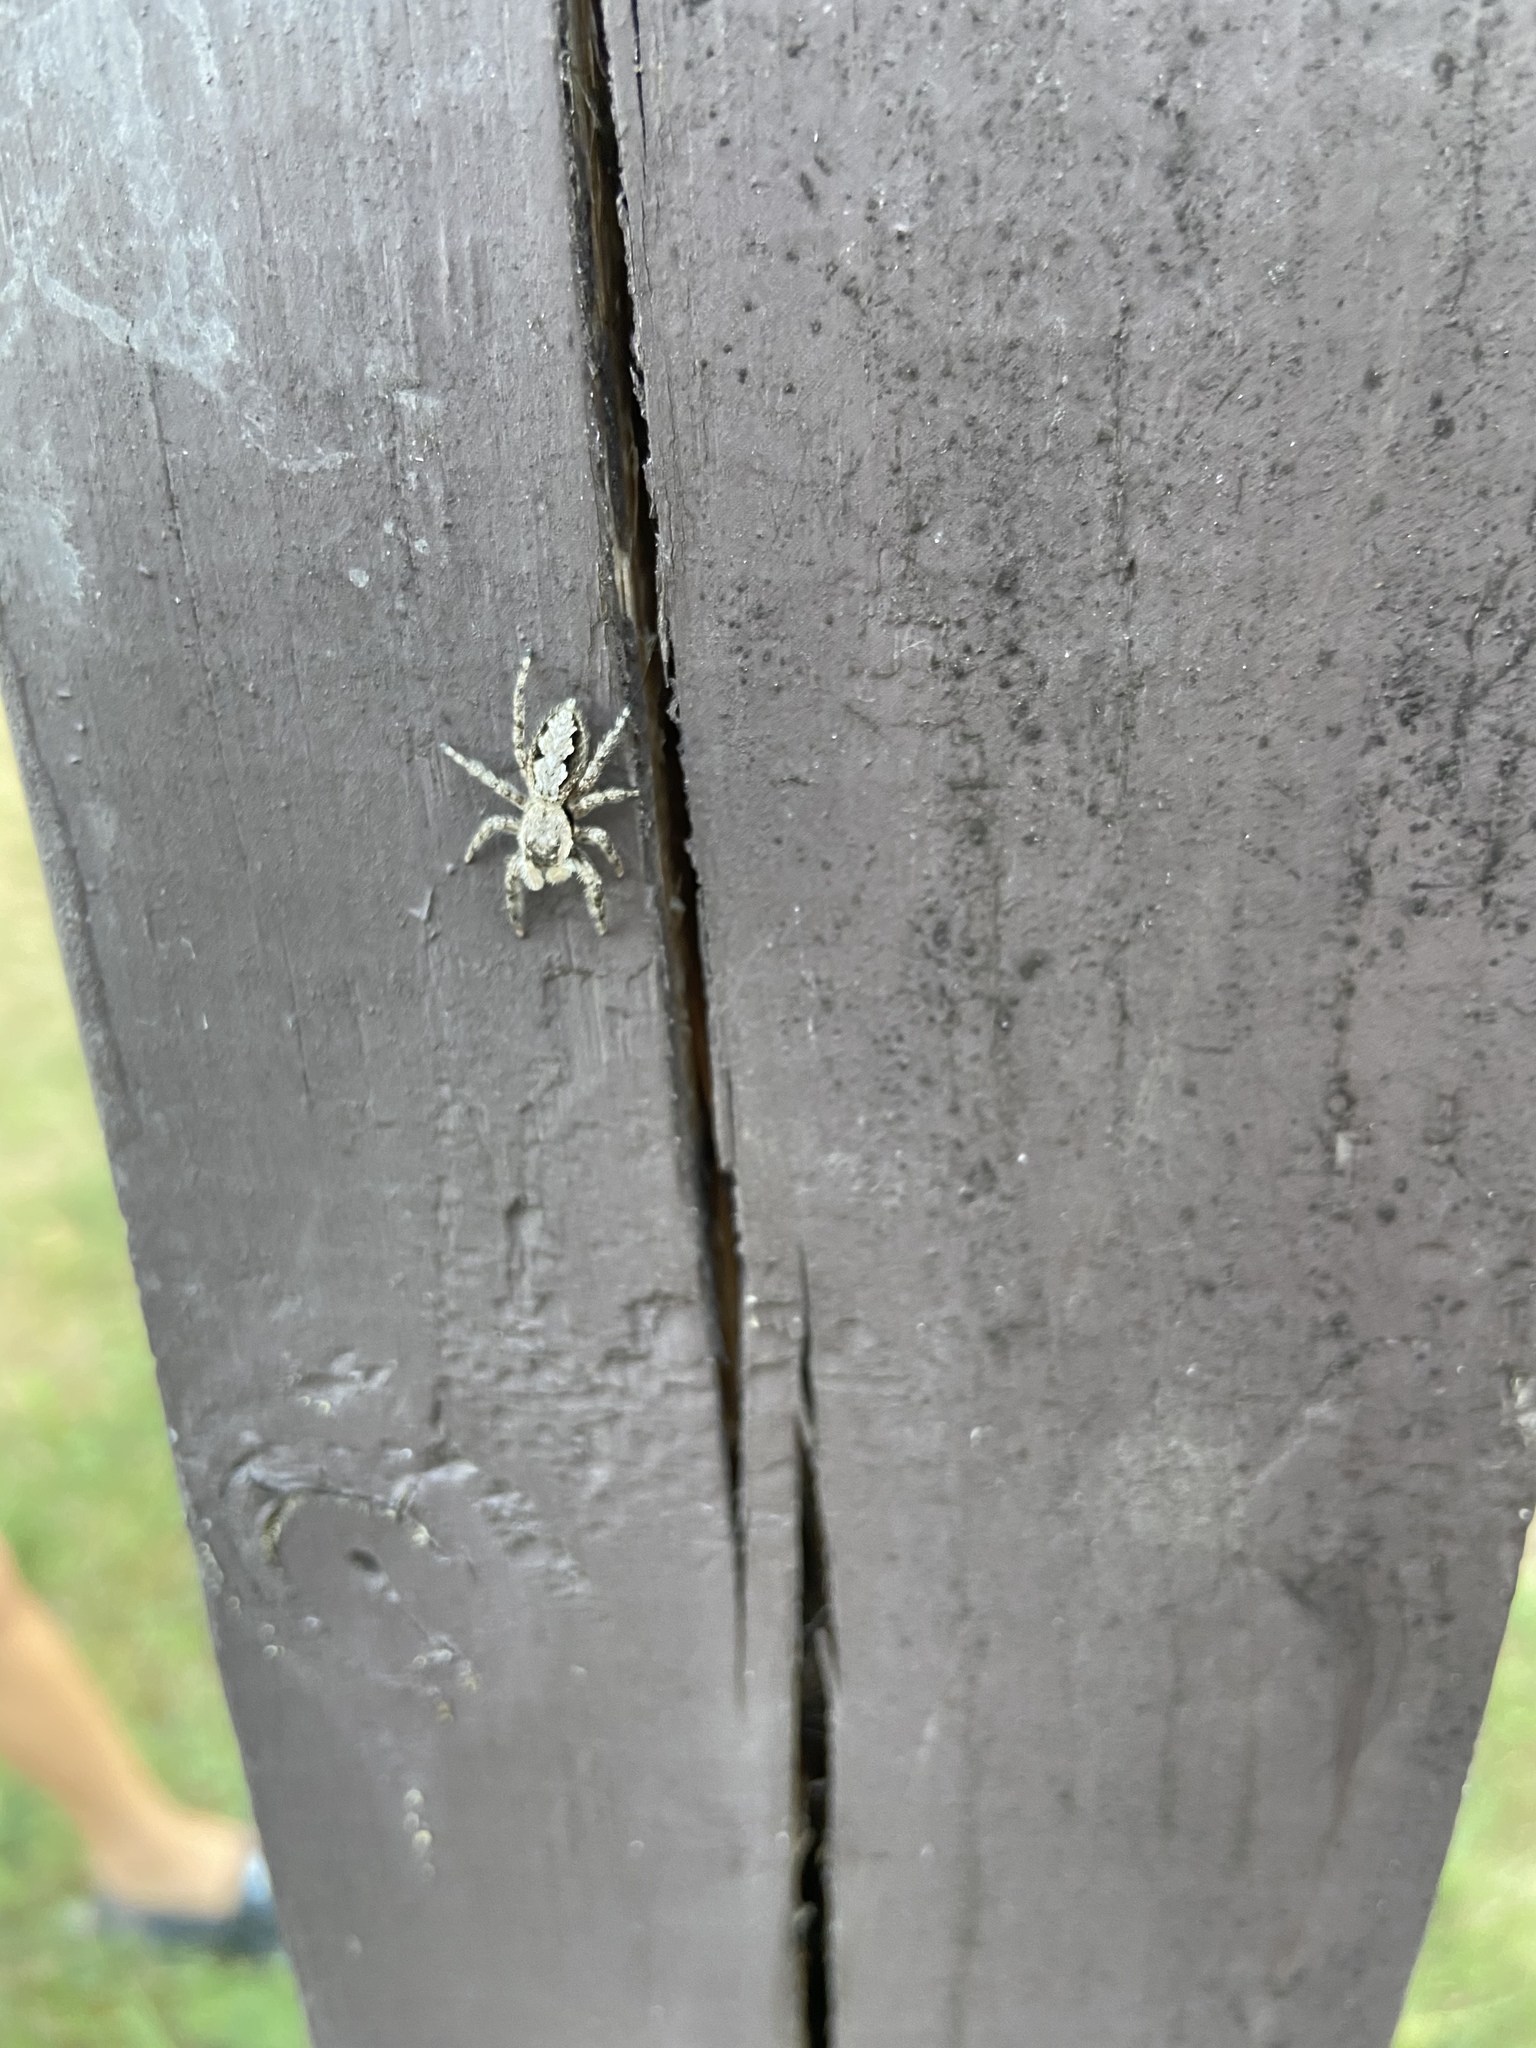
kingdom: Animalia
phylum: Arthropoda
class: Arachnida
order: Araneae
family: Salticidae
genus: Platycryptus
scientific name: Platycryptus undatus
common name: Tan jumping spider
